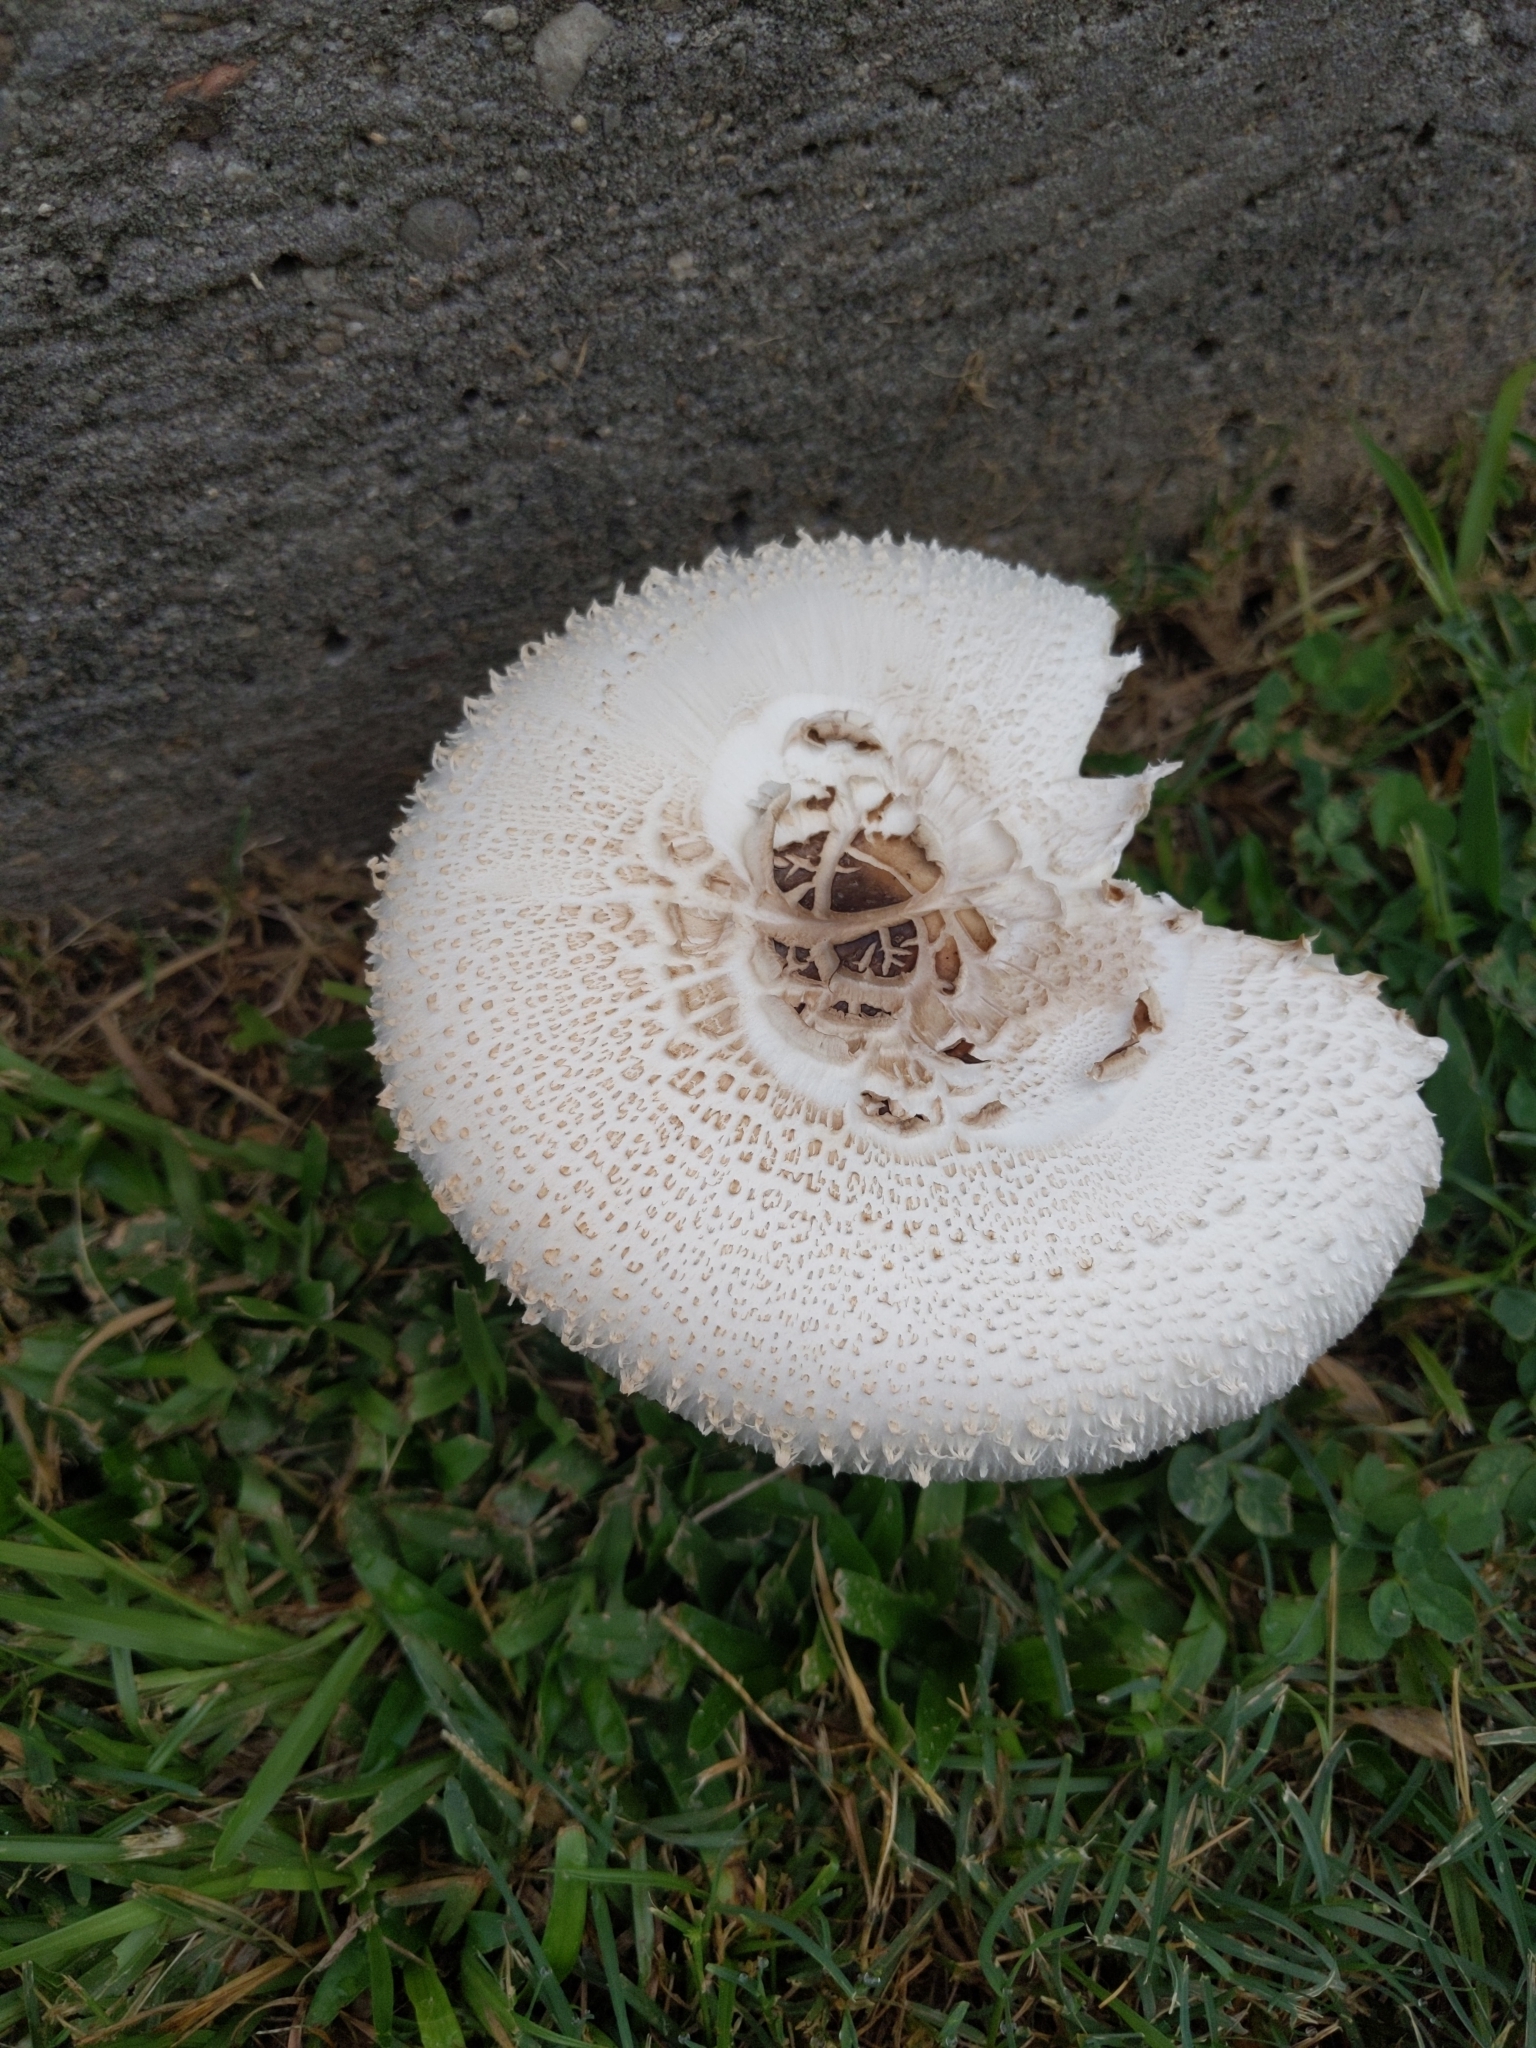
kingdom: Fungi
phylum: Basidiomycota
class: Agaricomycetes
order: Agaricales
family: Agaricaceae
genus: Chlorophyllum
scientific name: Chlorophyllum molybdites
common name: False parasol
